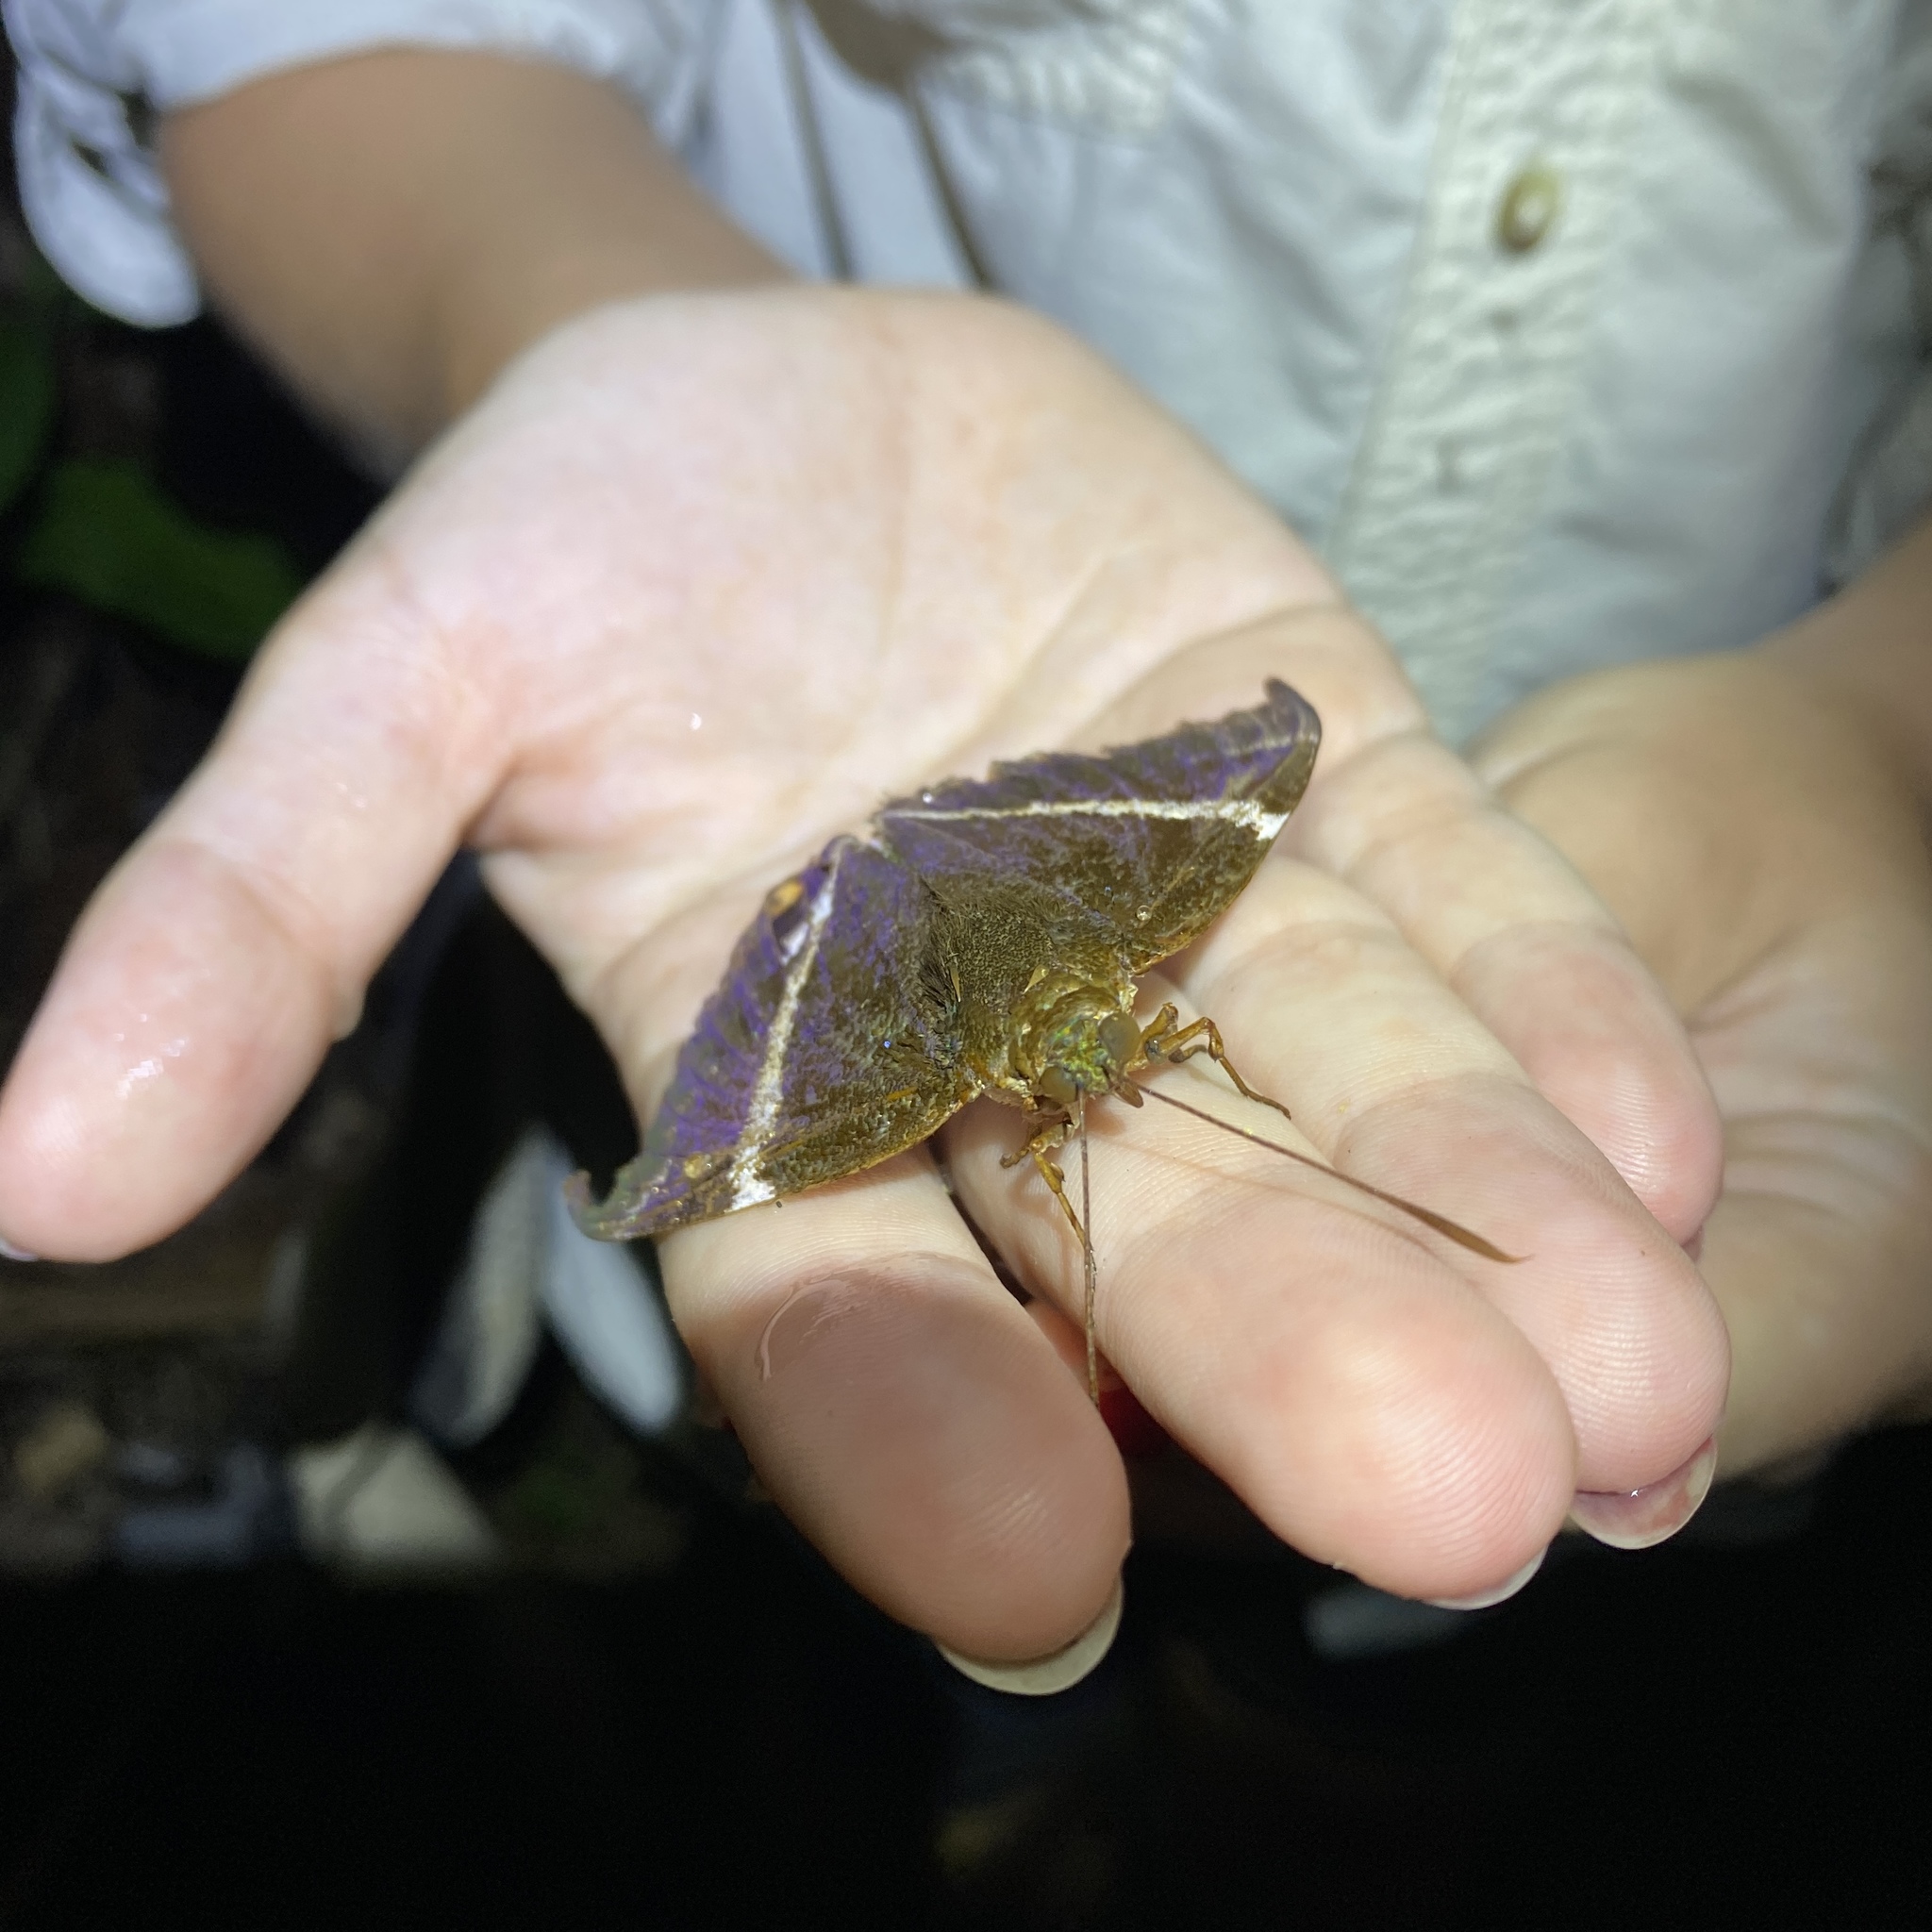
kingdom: Animalia
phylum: Arthropoda
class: Insecta
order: Lepidoptera
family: Castniidae
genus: Castnia
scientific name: Castnia licus
